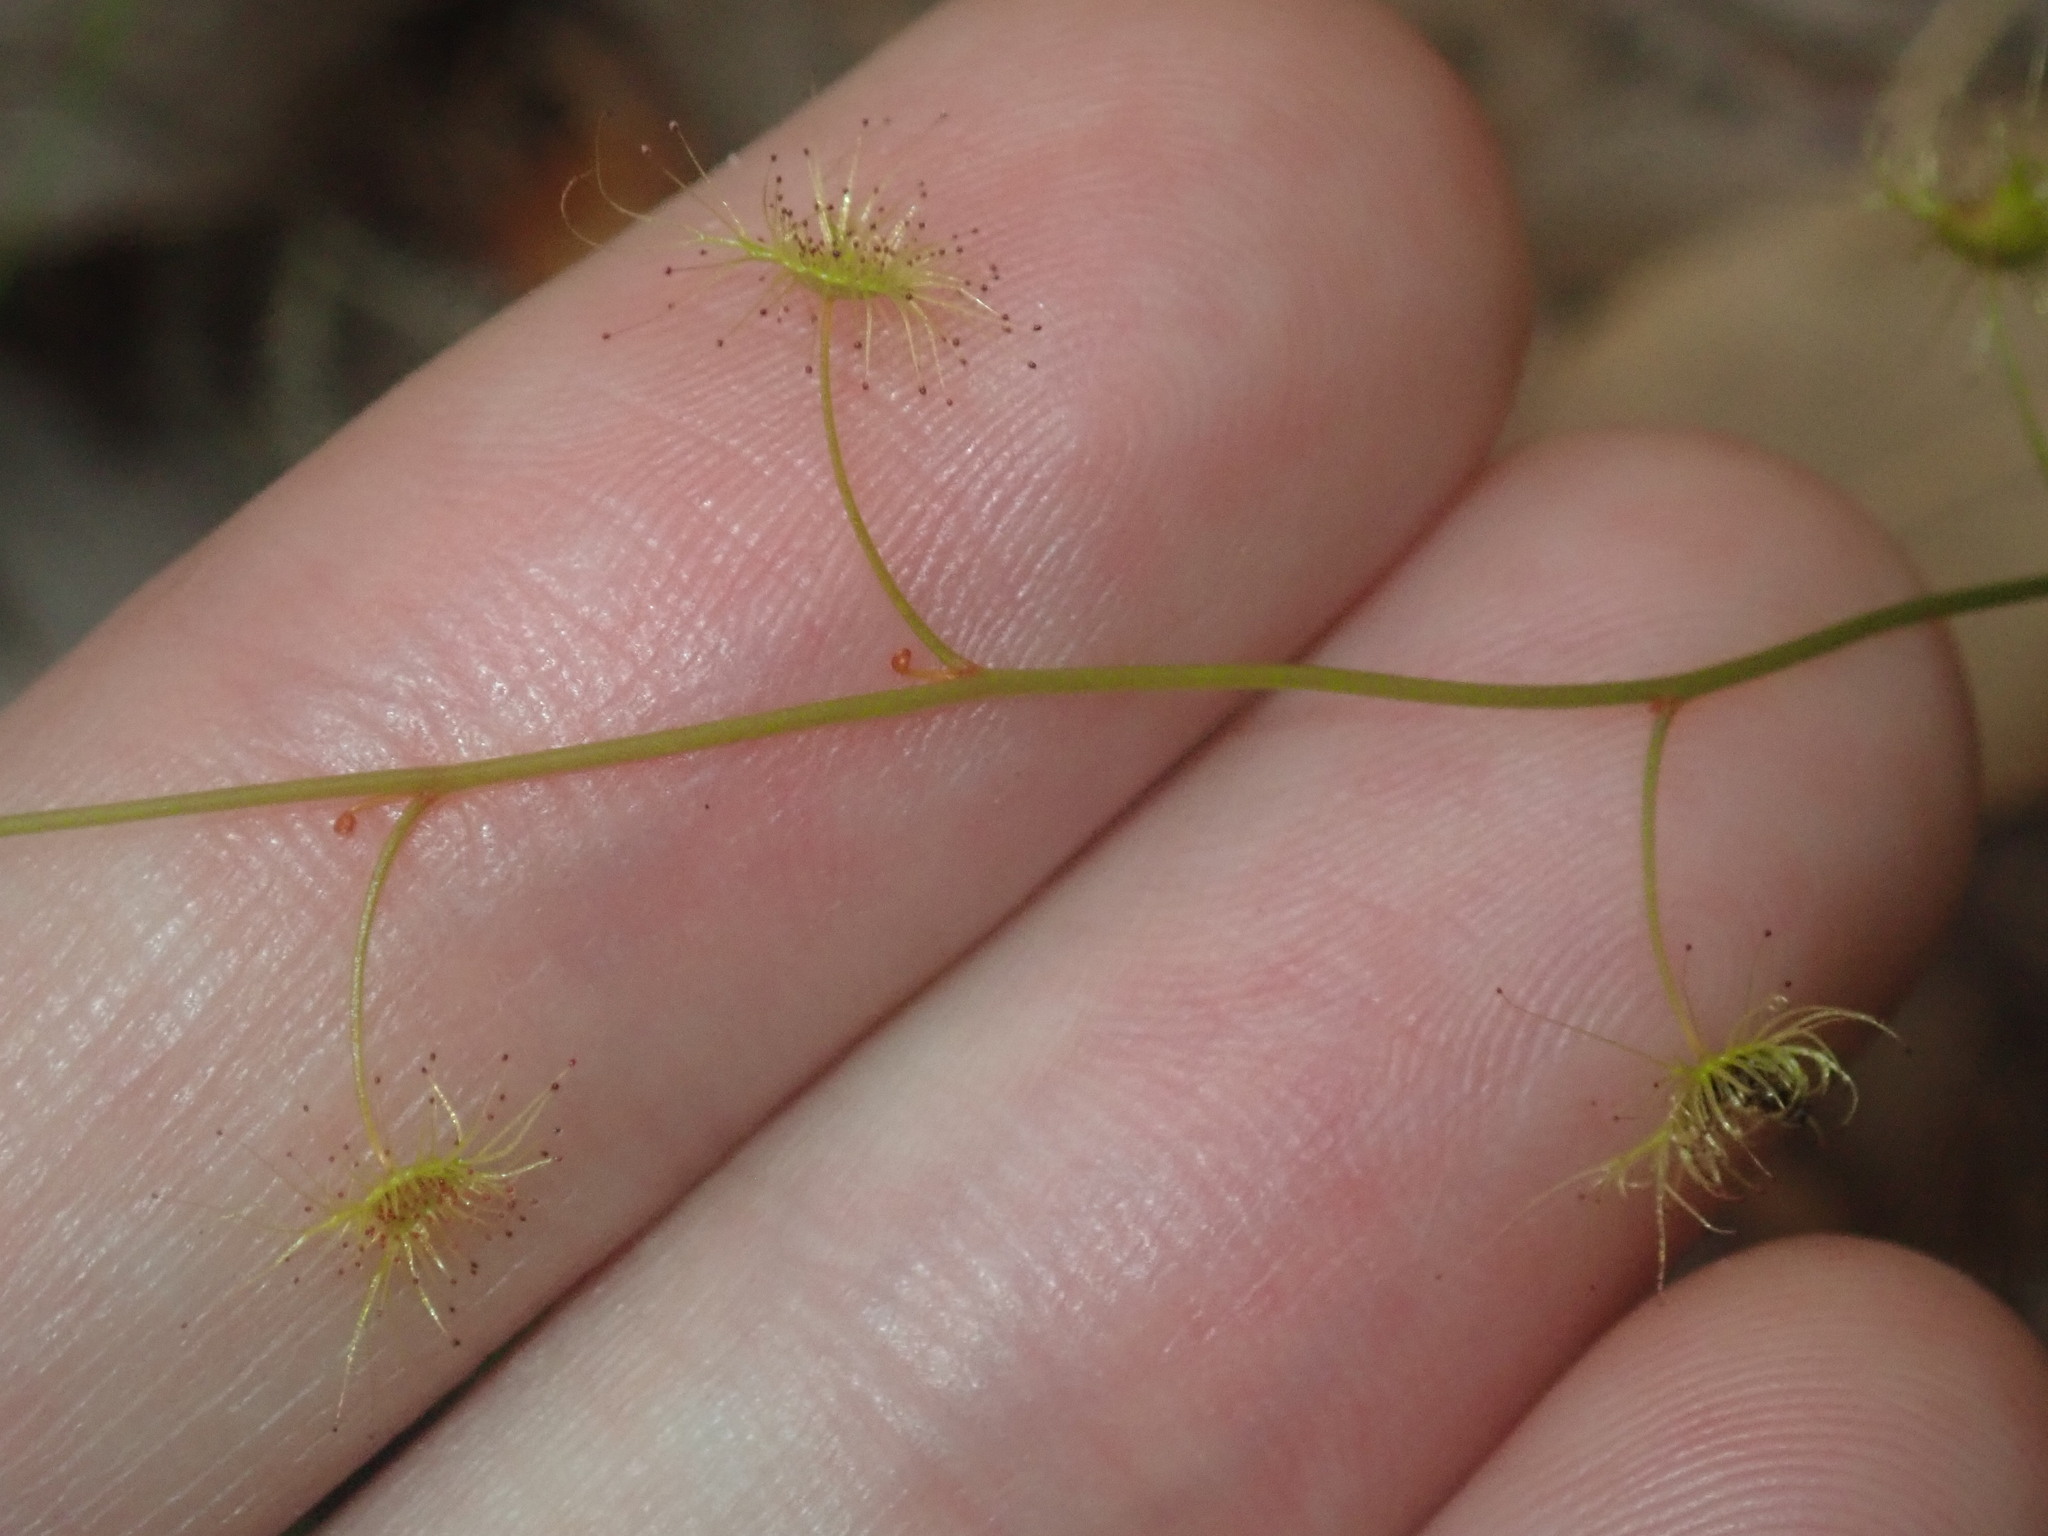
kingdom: Plantae
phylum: Tracheophyta
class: Magnoliopsida
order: Caryophyllales
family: Droseraceae
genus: Drosera
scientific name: Drosera peltata
